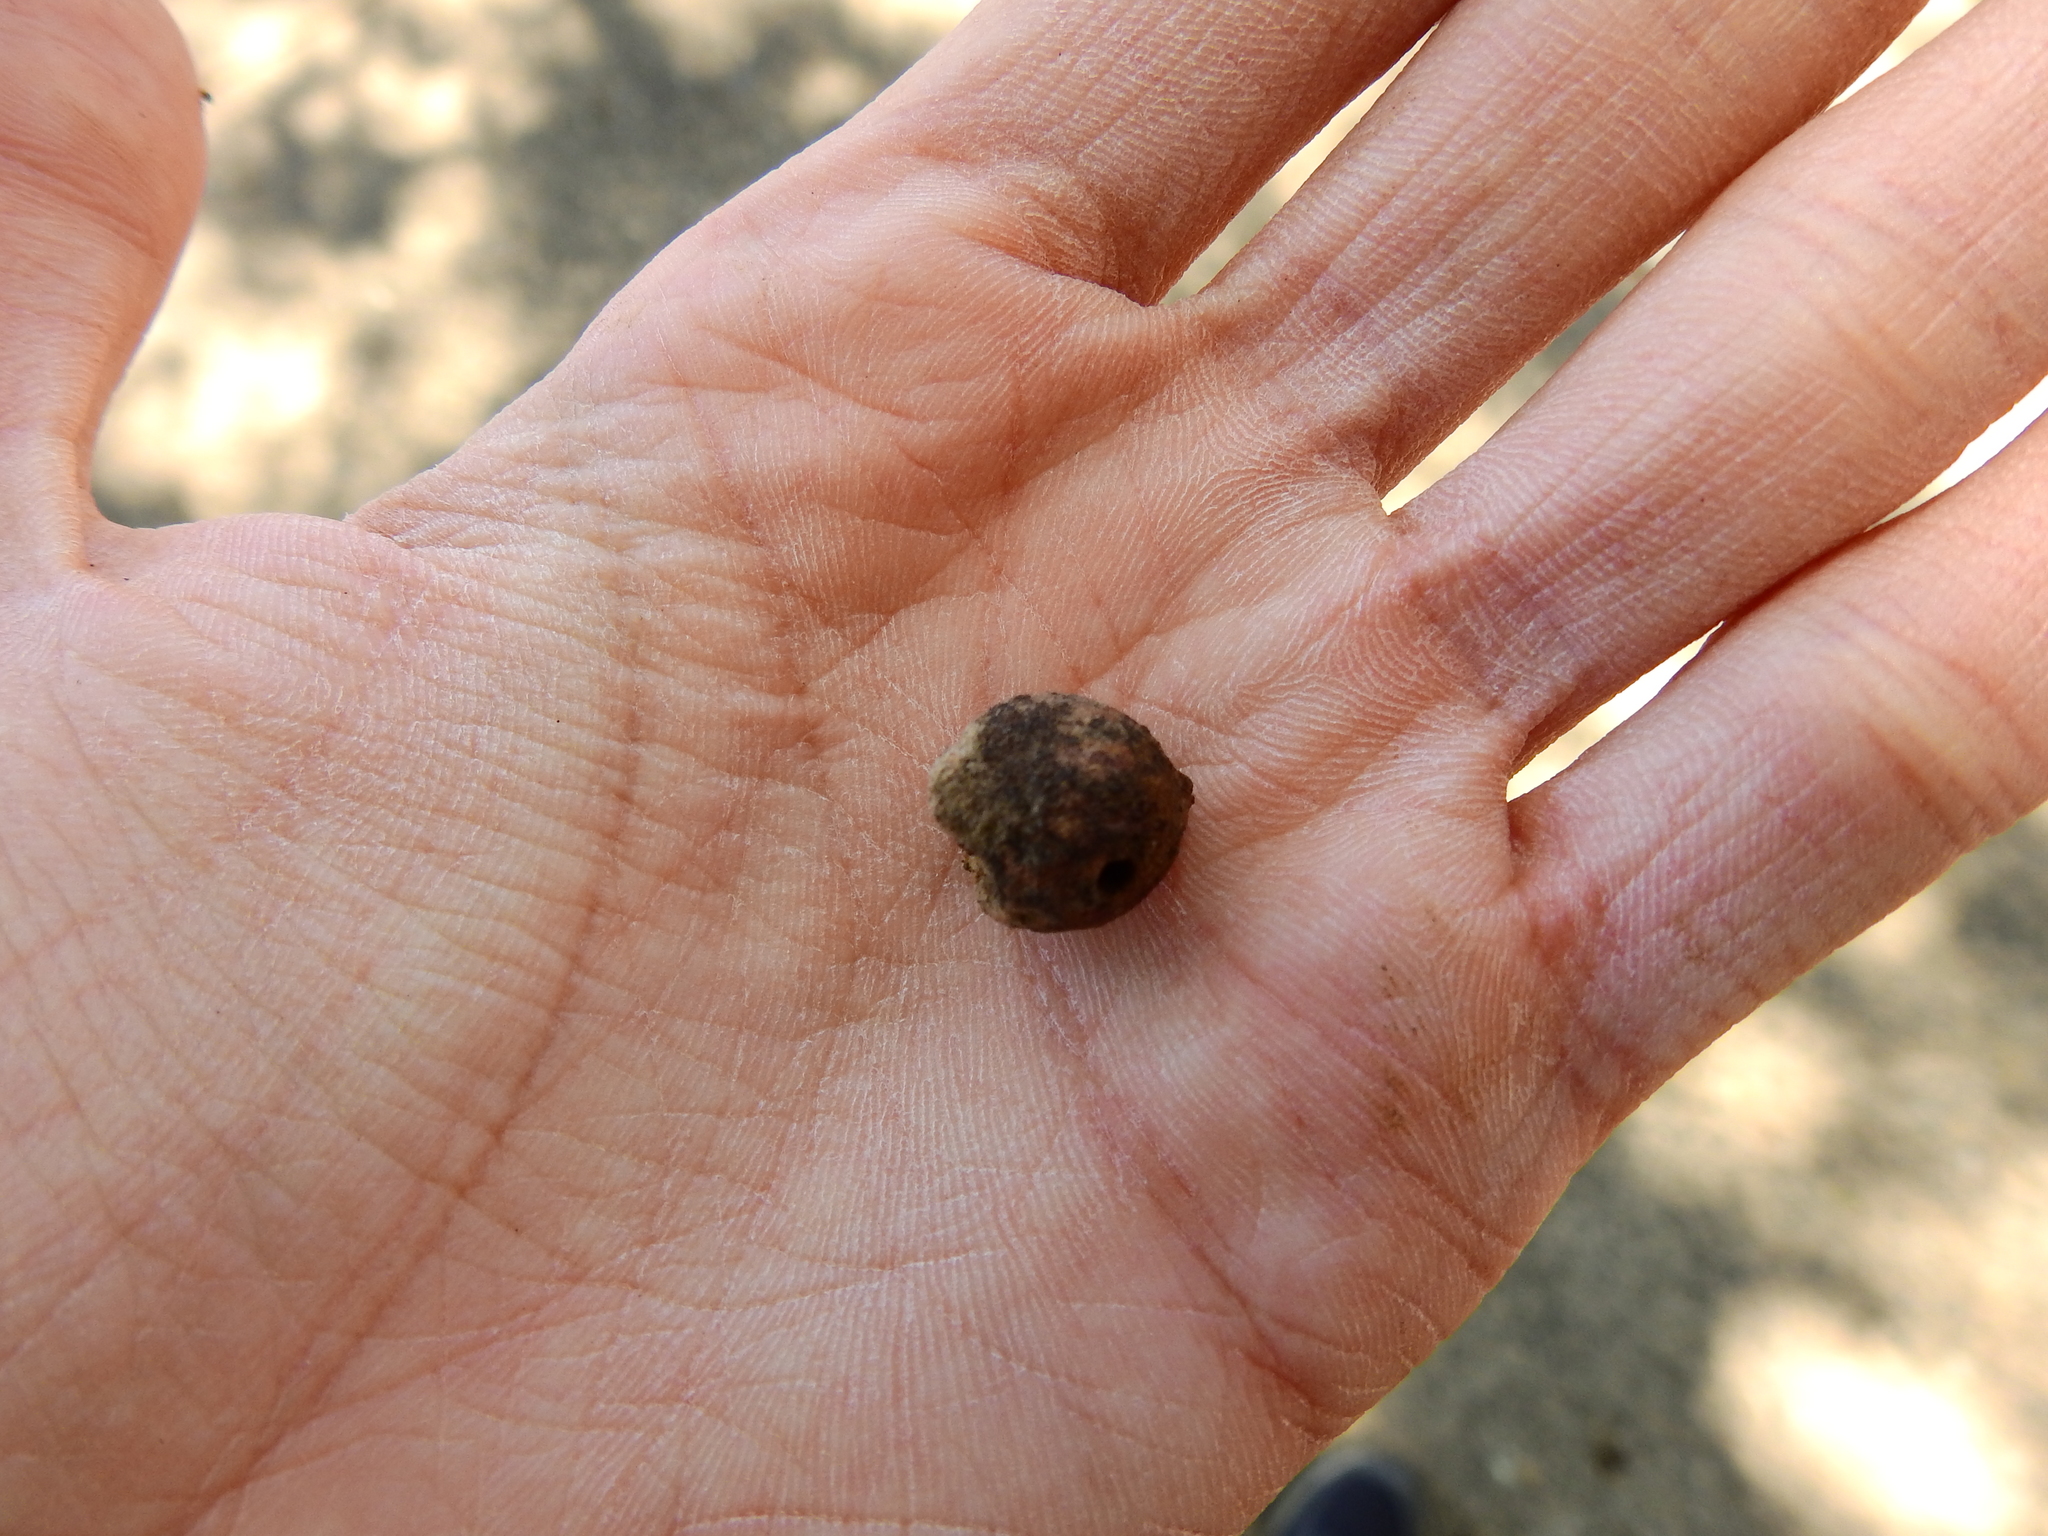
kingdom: Animalia
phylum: Arthropoda
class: Insecta
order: Hymenoptera
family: Cynipidae
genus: Disholcaspis
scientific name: Disholcaspis
